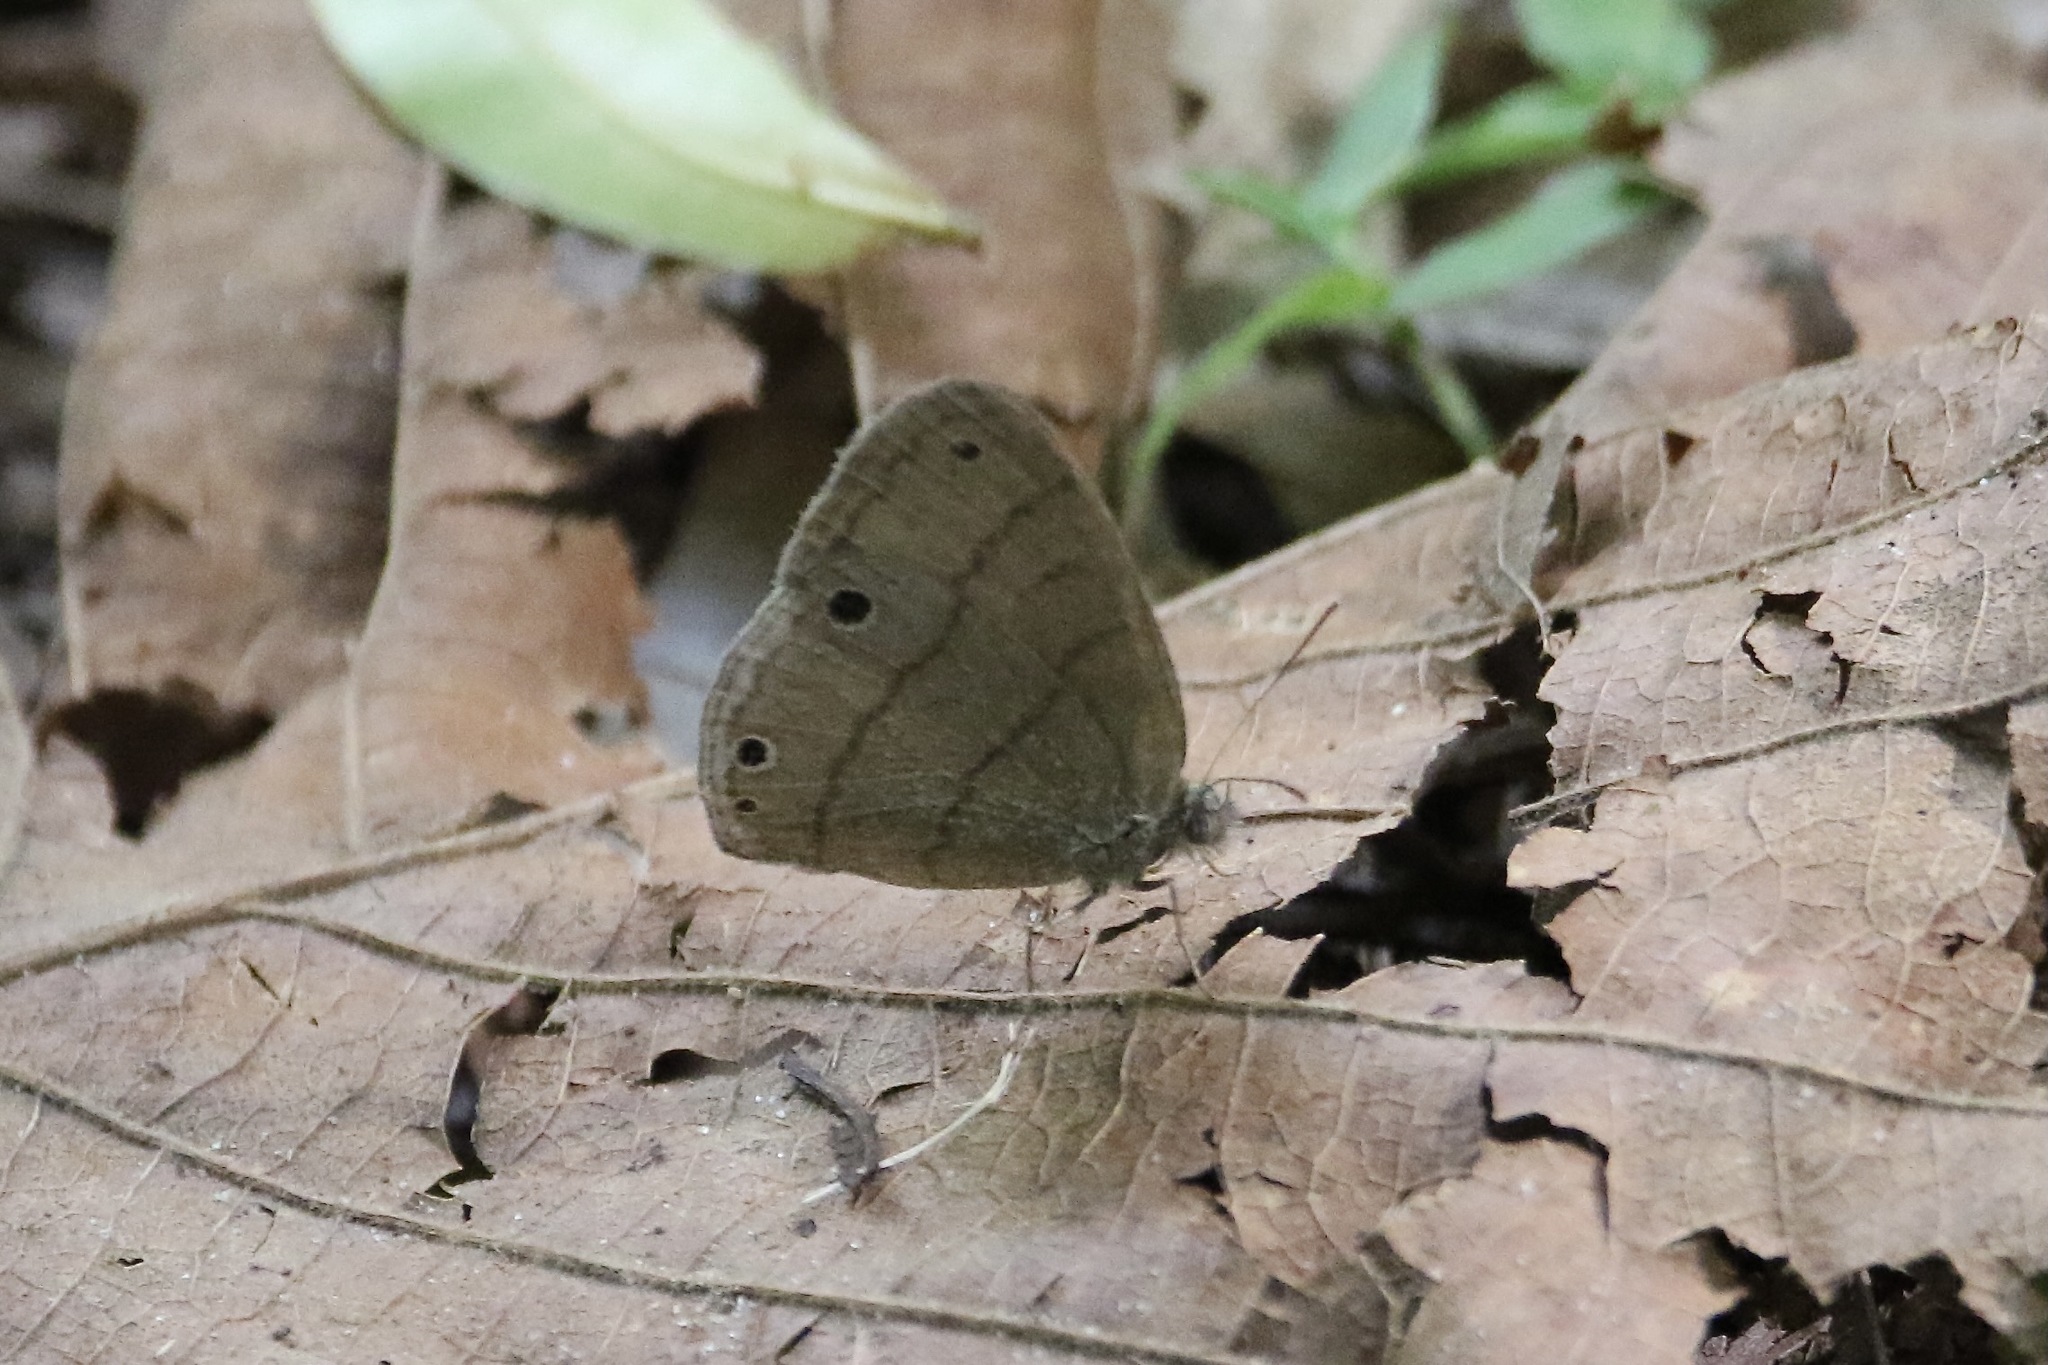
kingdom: Animalia
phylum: Arthropoda
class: Insecta
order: Lepidoptera
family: Nymphalidae
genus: Hermeuptychia
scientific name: Hermeuptychia hermes
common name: Hermes satyr
